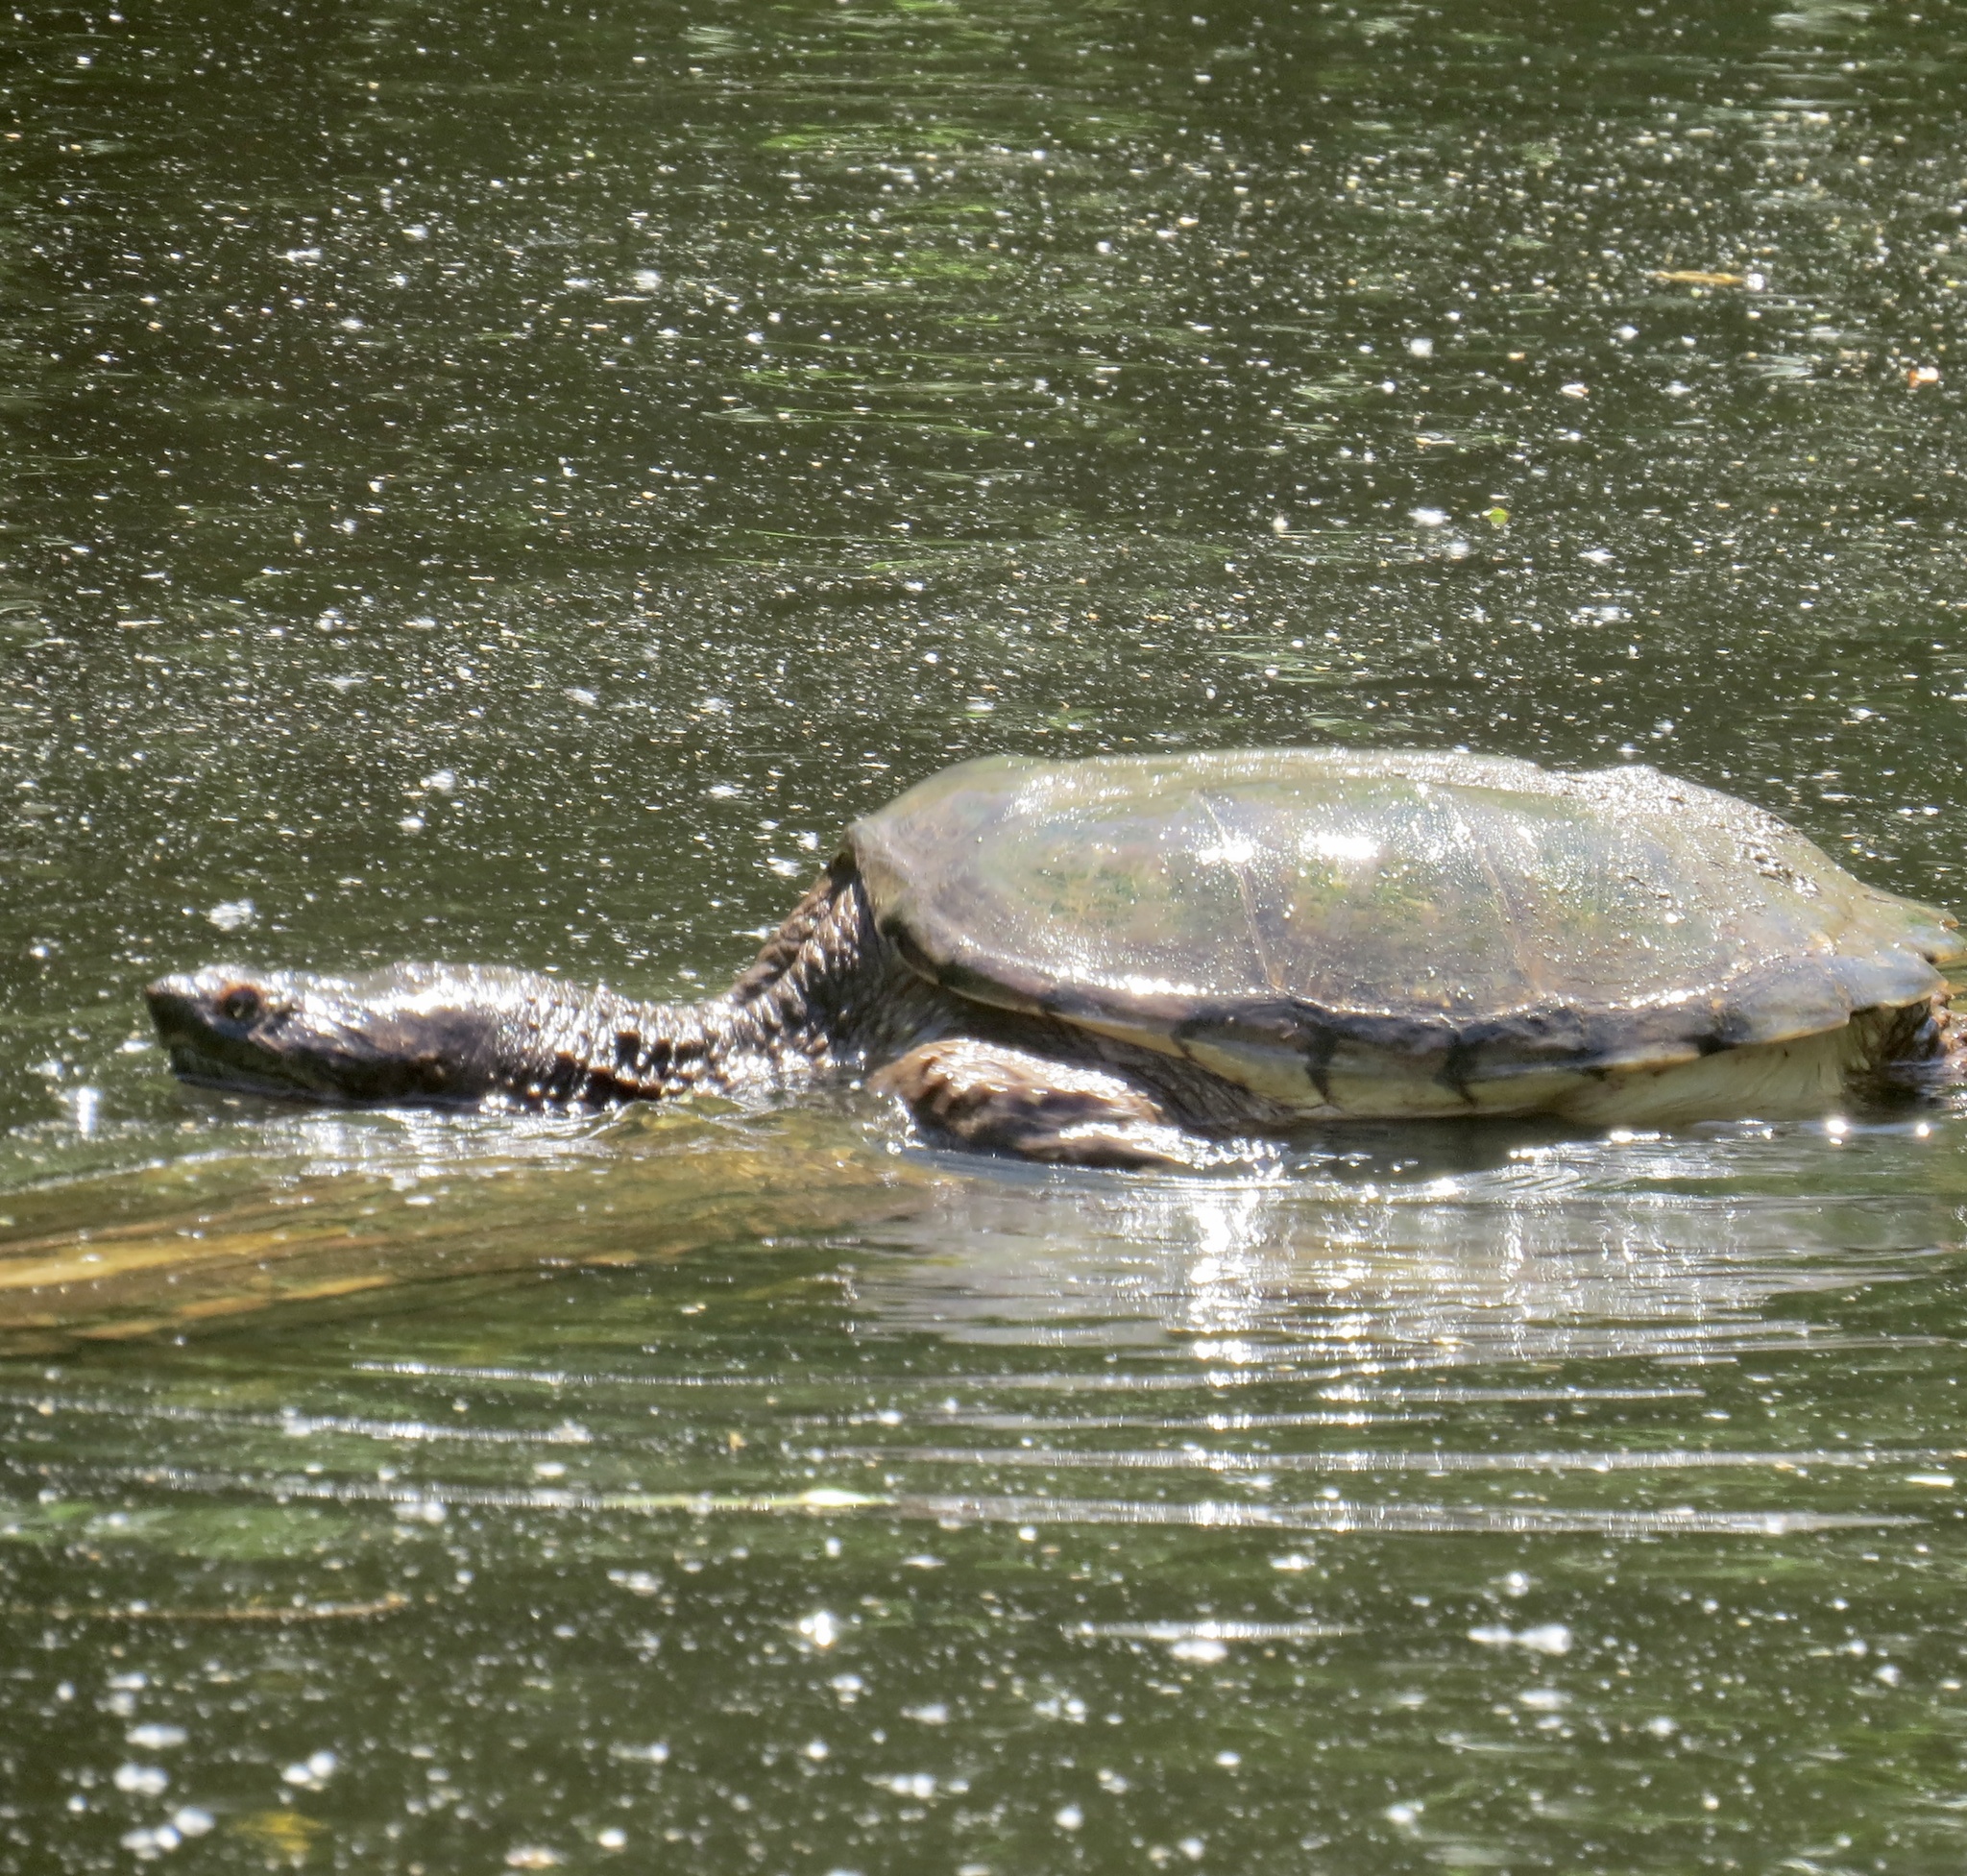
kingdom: Animalia
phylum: Chordata
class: Testudines
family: Chelydridae
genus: Chelydra
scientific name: Chelydra serpentina
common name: Common snapping turtle
